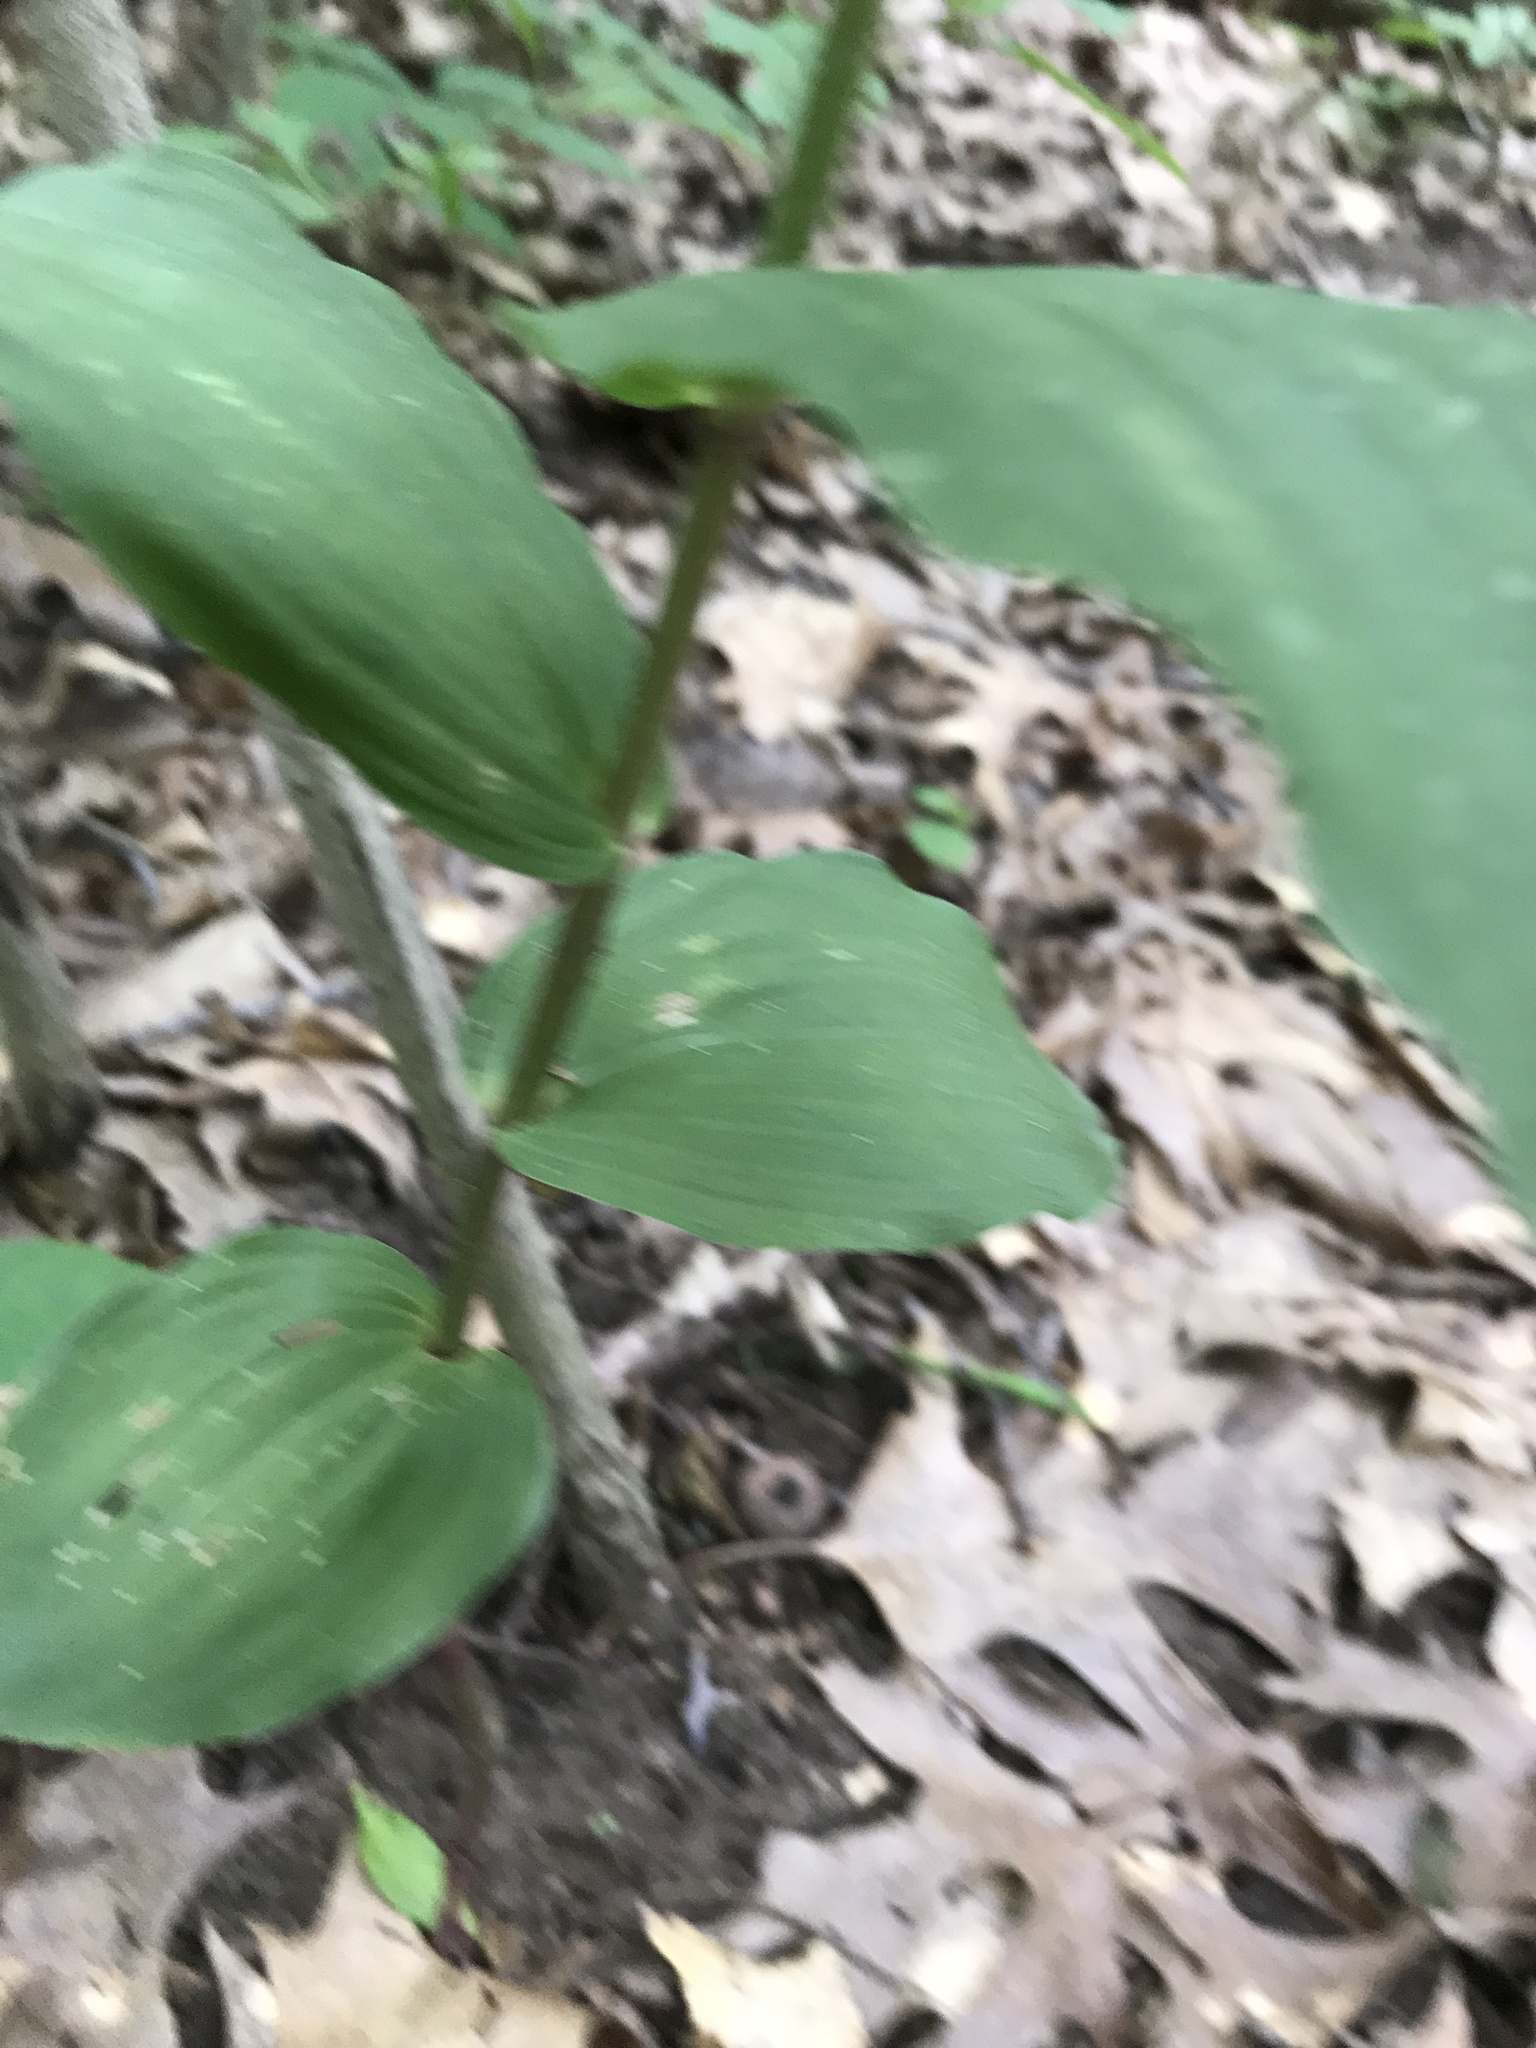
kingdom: Plantae
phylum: Tracheophyta
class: Liliopsida
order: Asparagales
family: Orchidaceae
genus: Epipactis
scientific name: Epipactis helleborine
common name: Broad-leaved helleborine
